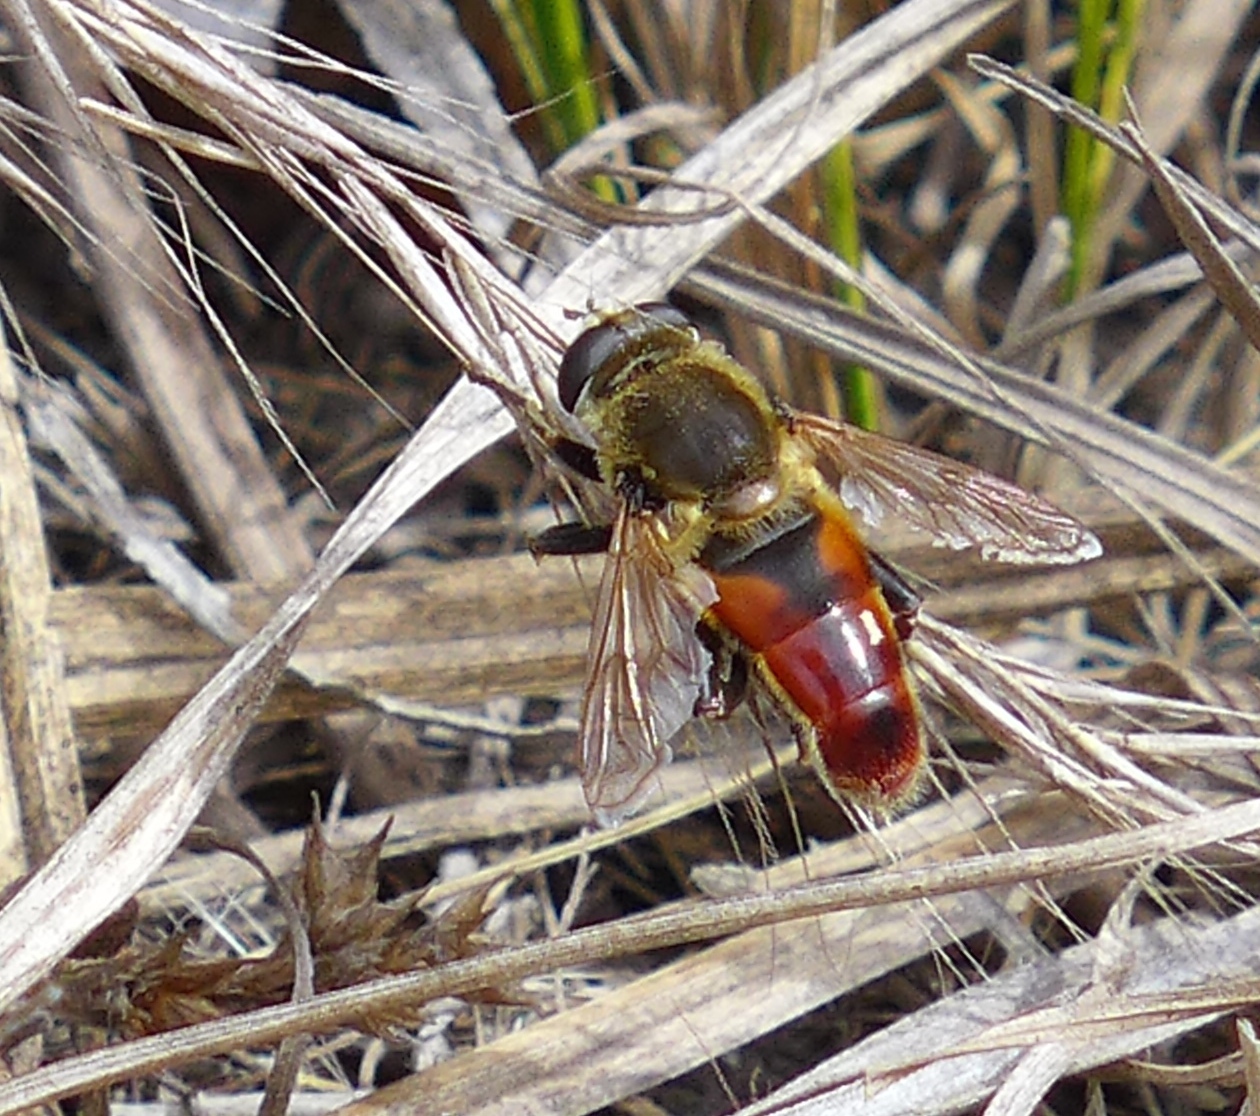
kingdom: Animalia
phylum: Arthropoda
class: Insecta
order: Diptera
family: Syrphidae
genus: Polydontomyia
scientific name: Polydontomyia curvipes
